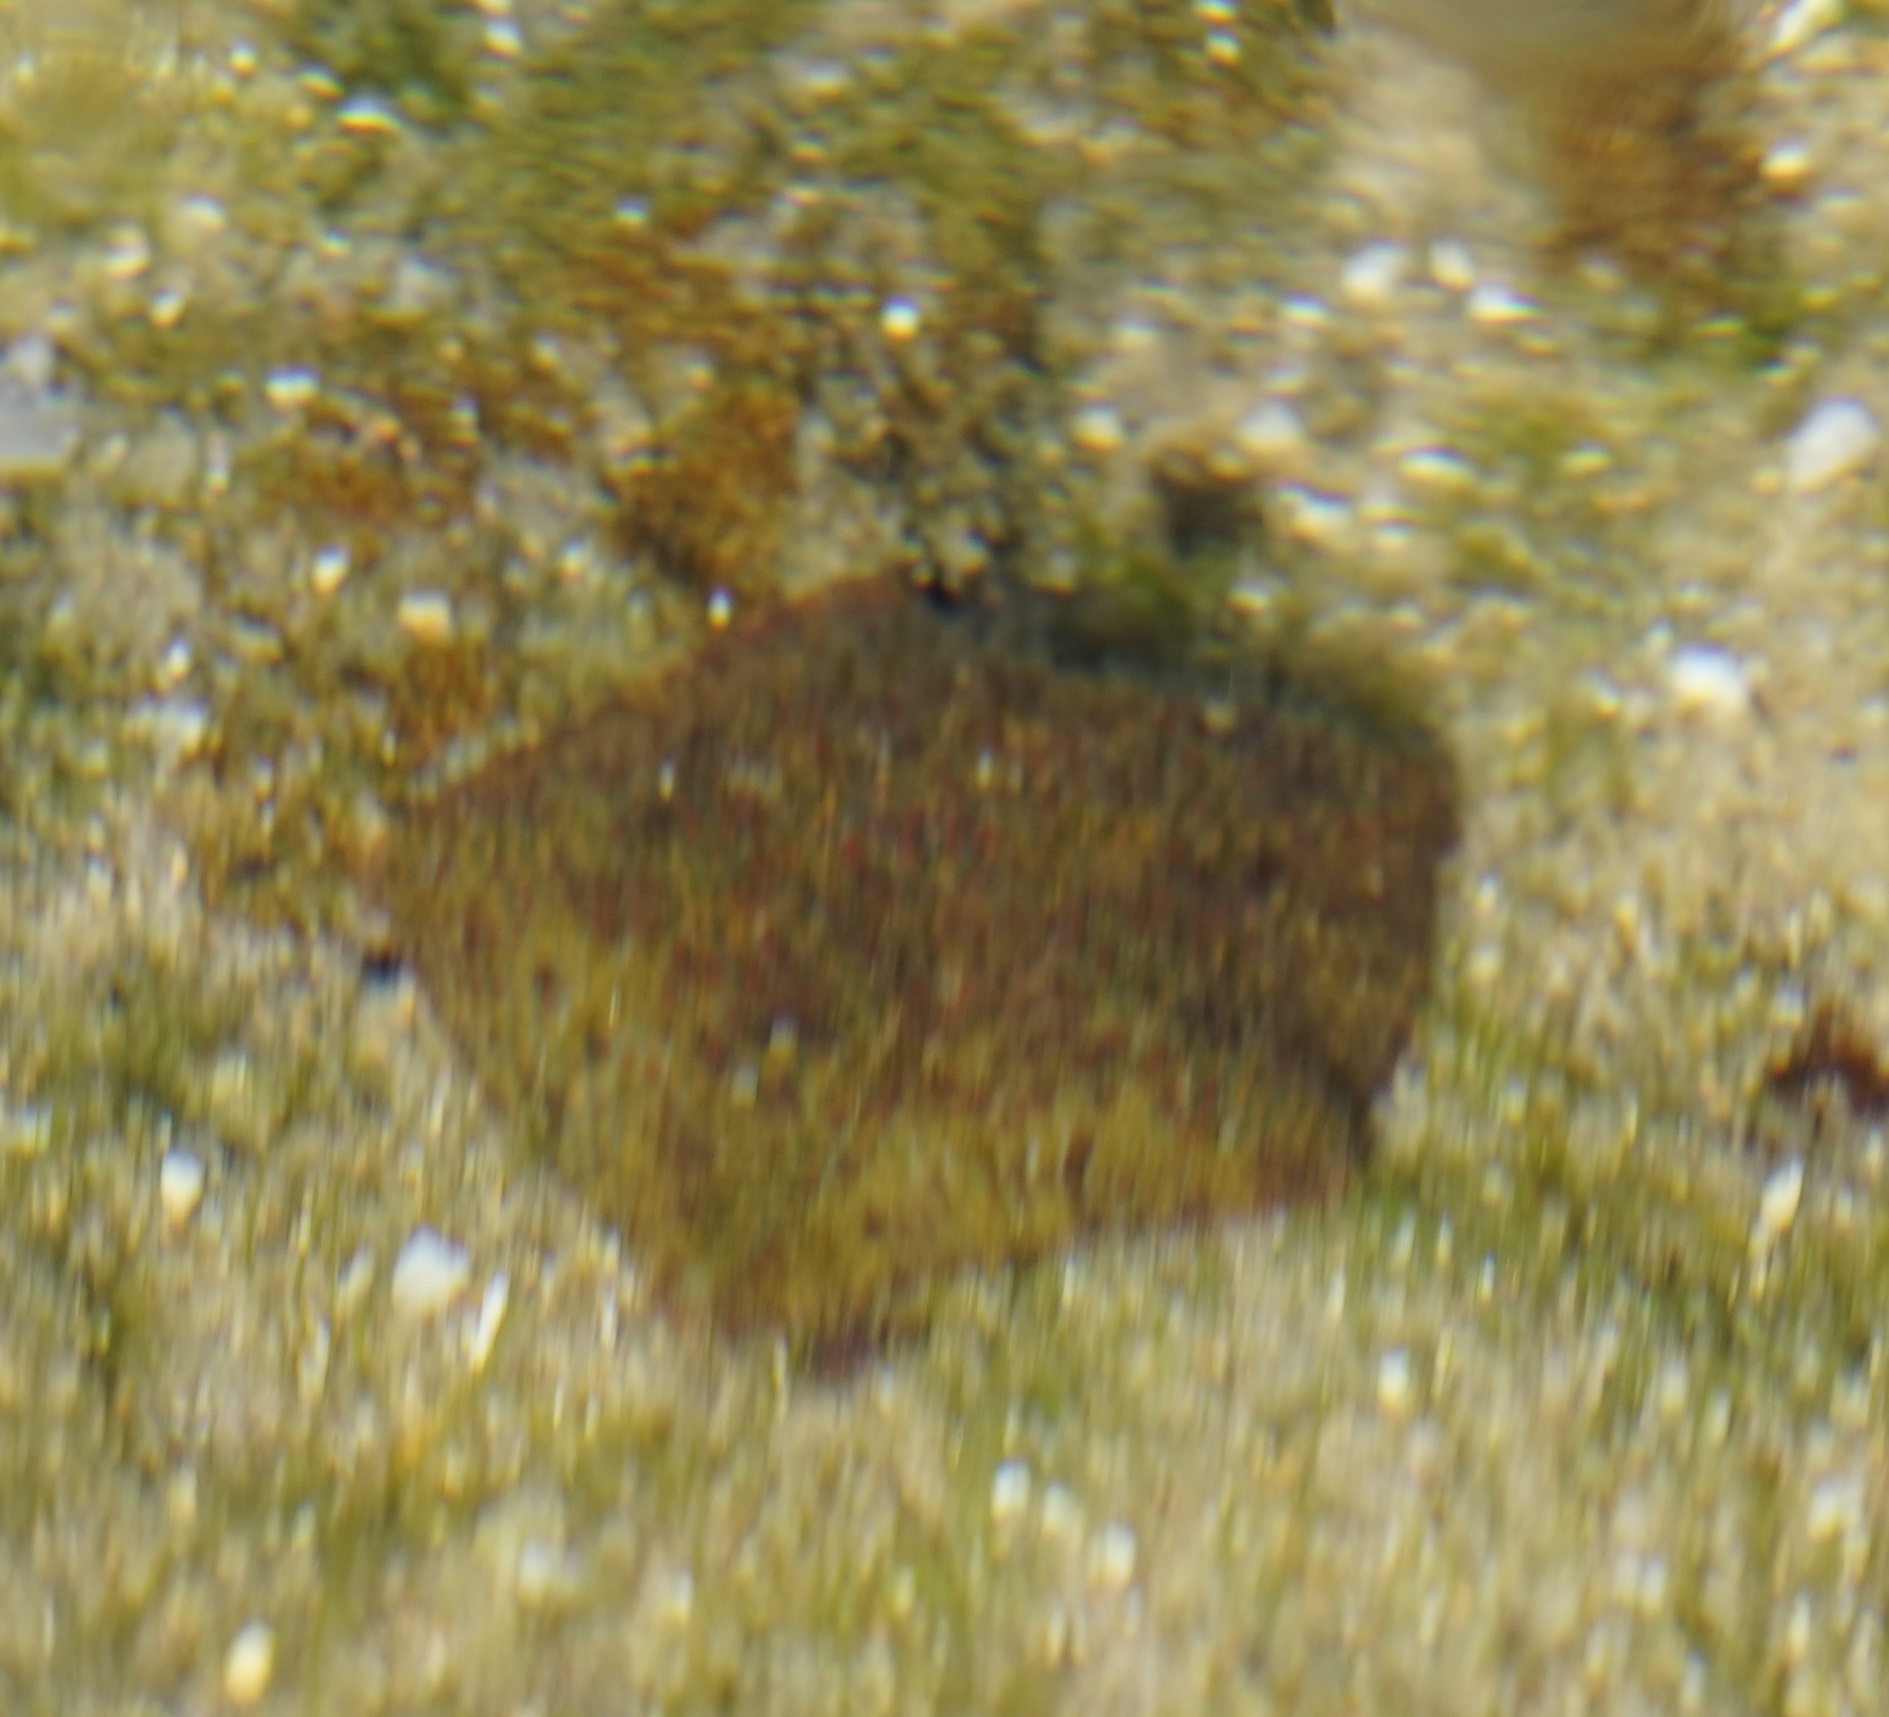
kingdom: Animalia
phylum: Echinodermata
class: Asteroidea
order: Valvatida
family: Asterinidae
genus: Parvulastra
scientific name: Parvulastra exigua
